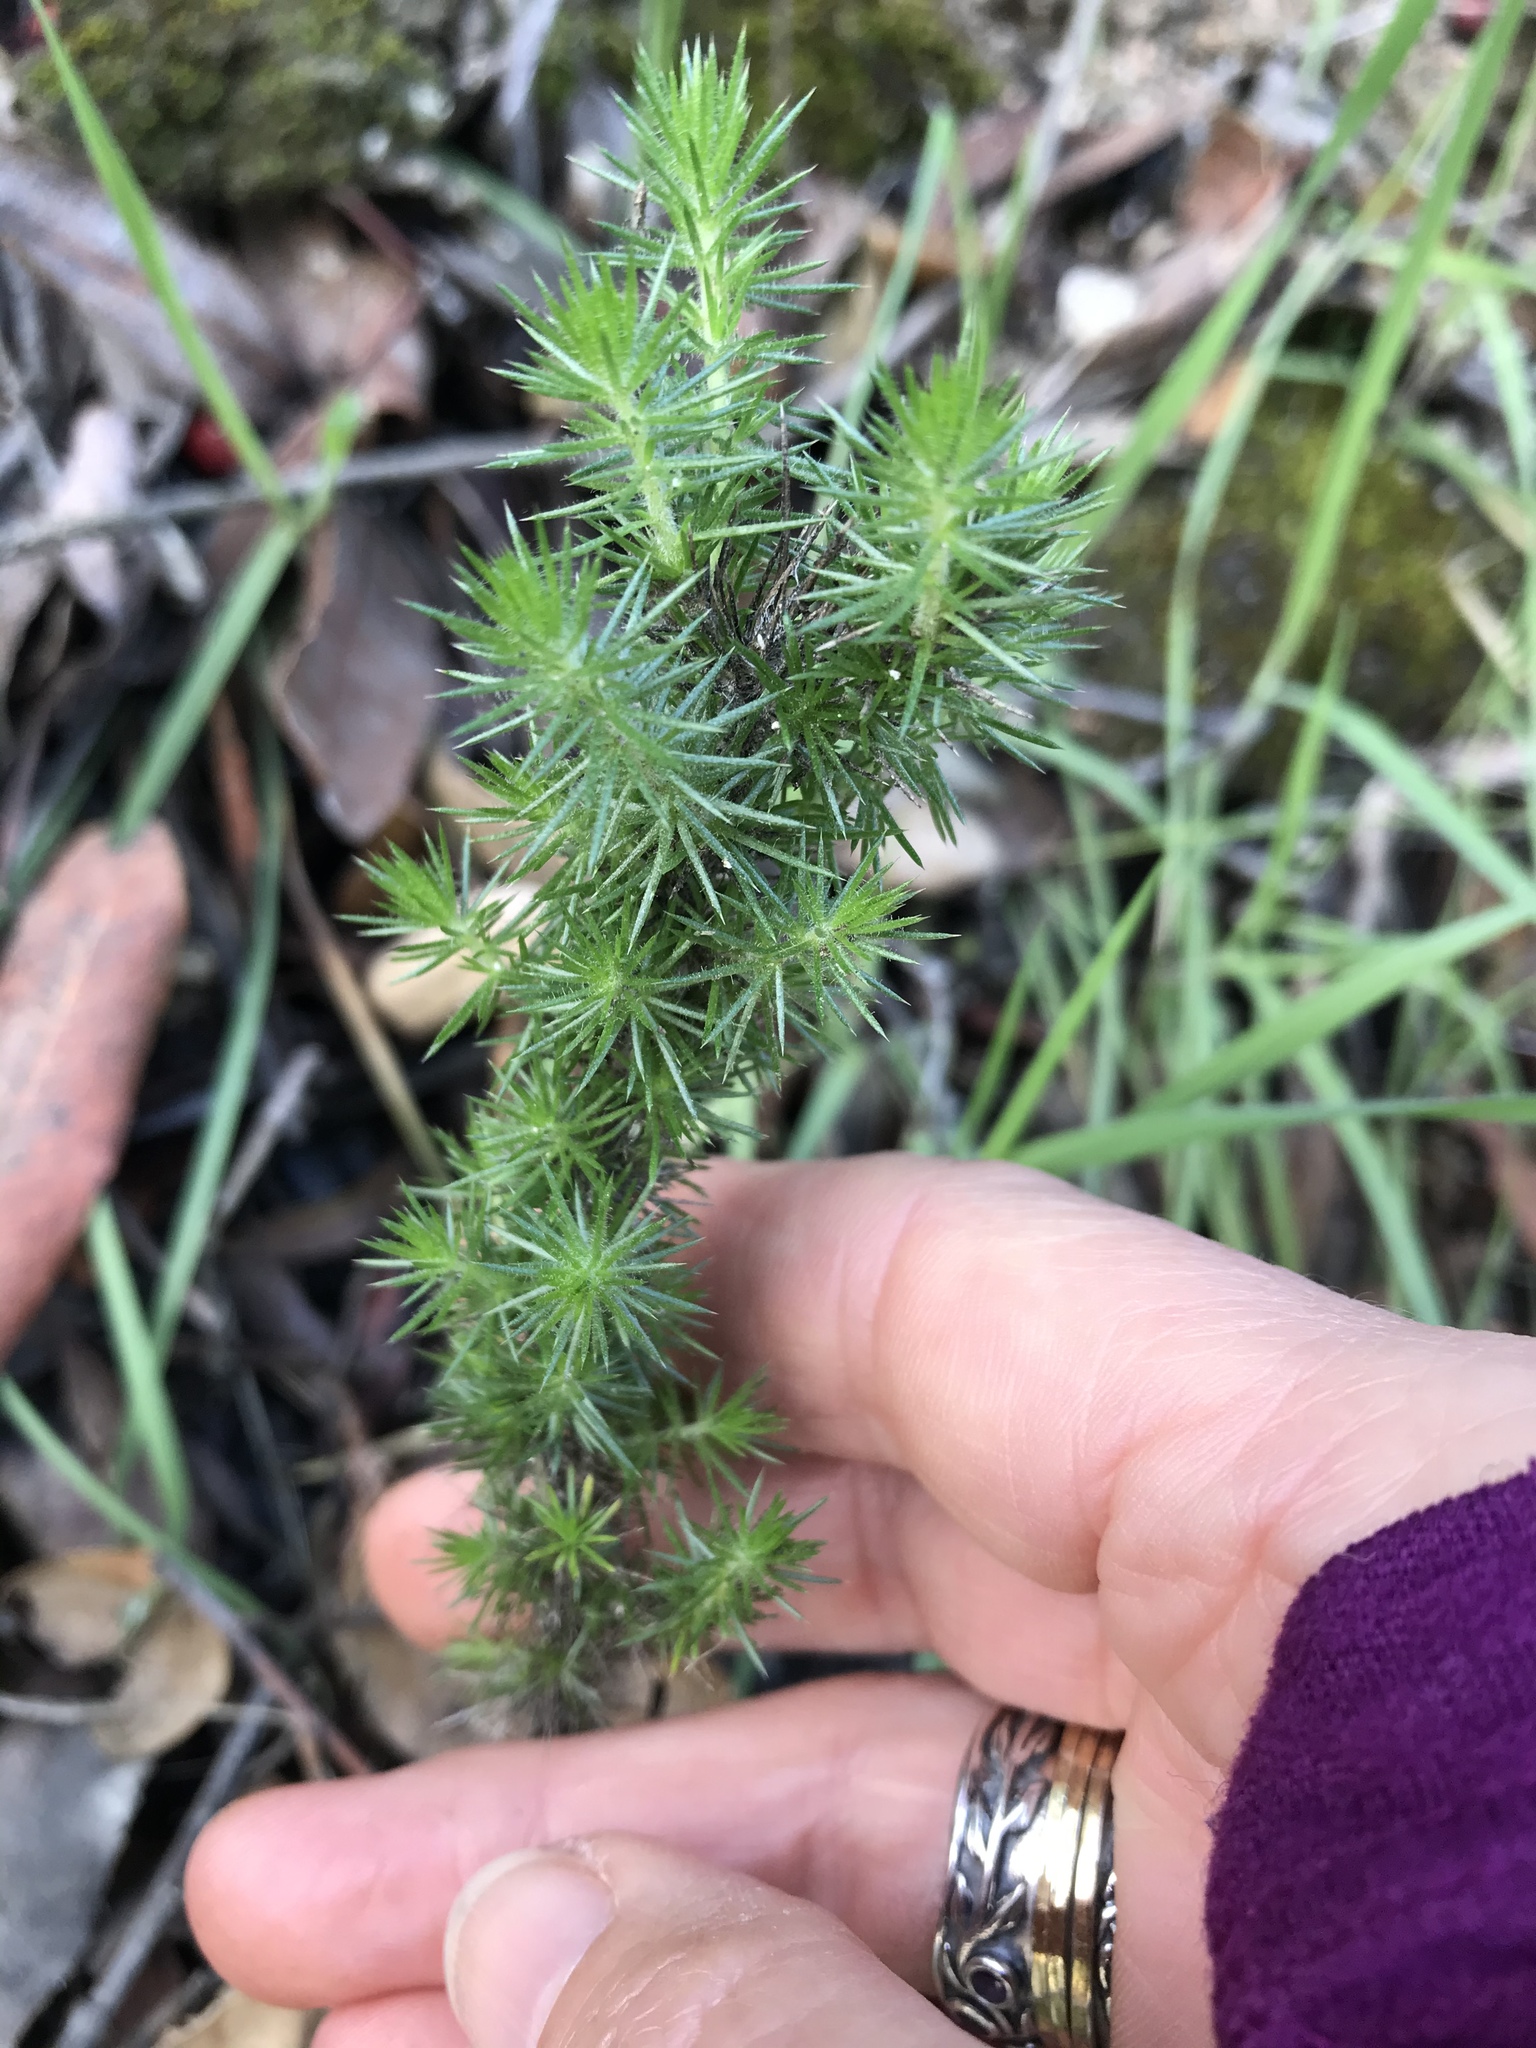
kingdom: Plantae
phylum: Tracheophyta
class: Magnoliopsida
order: Ericales
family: Polemoniaceae
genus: Linanthus
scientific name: Linanthus californicus
